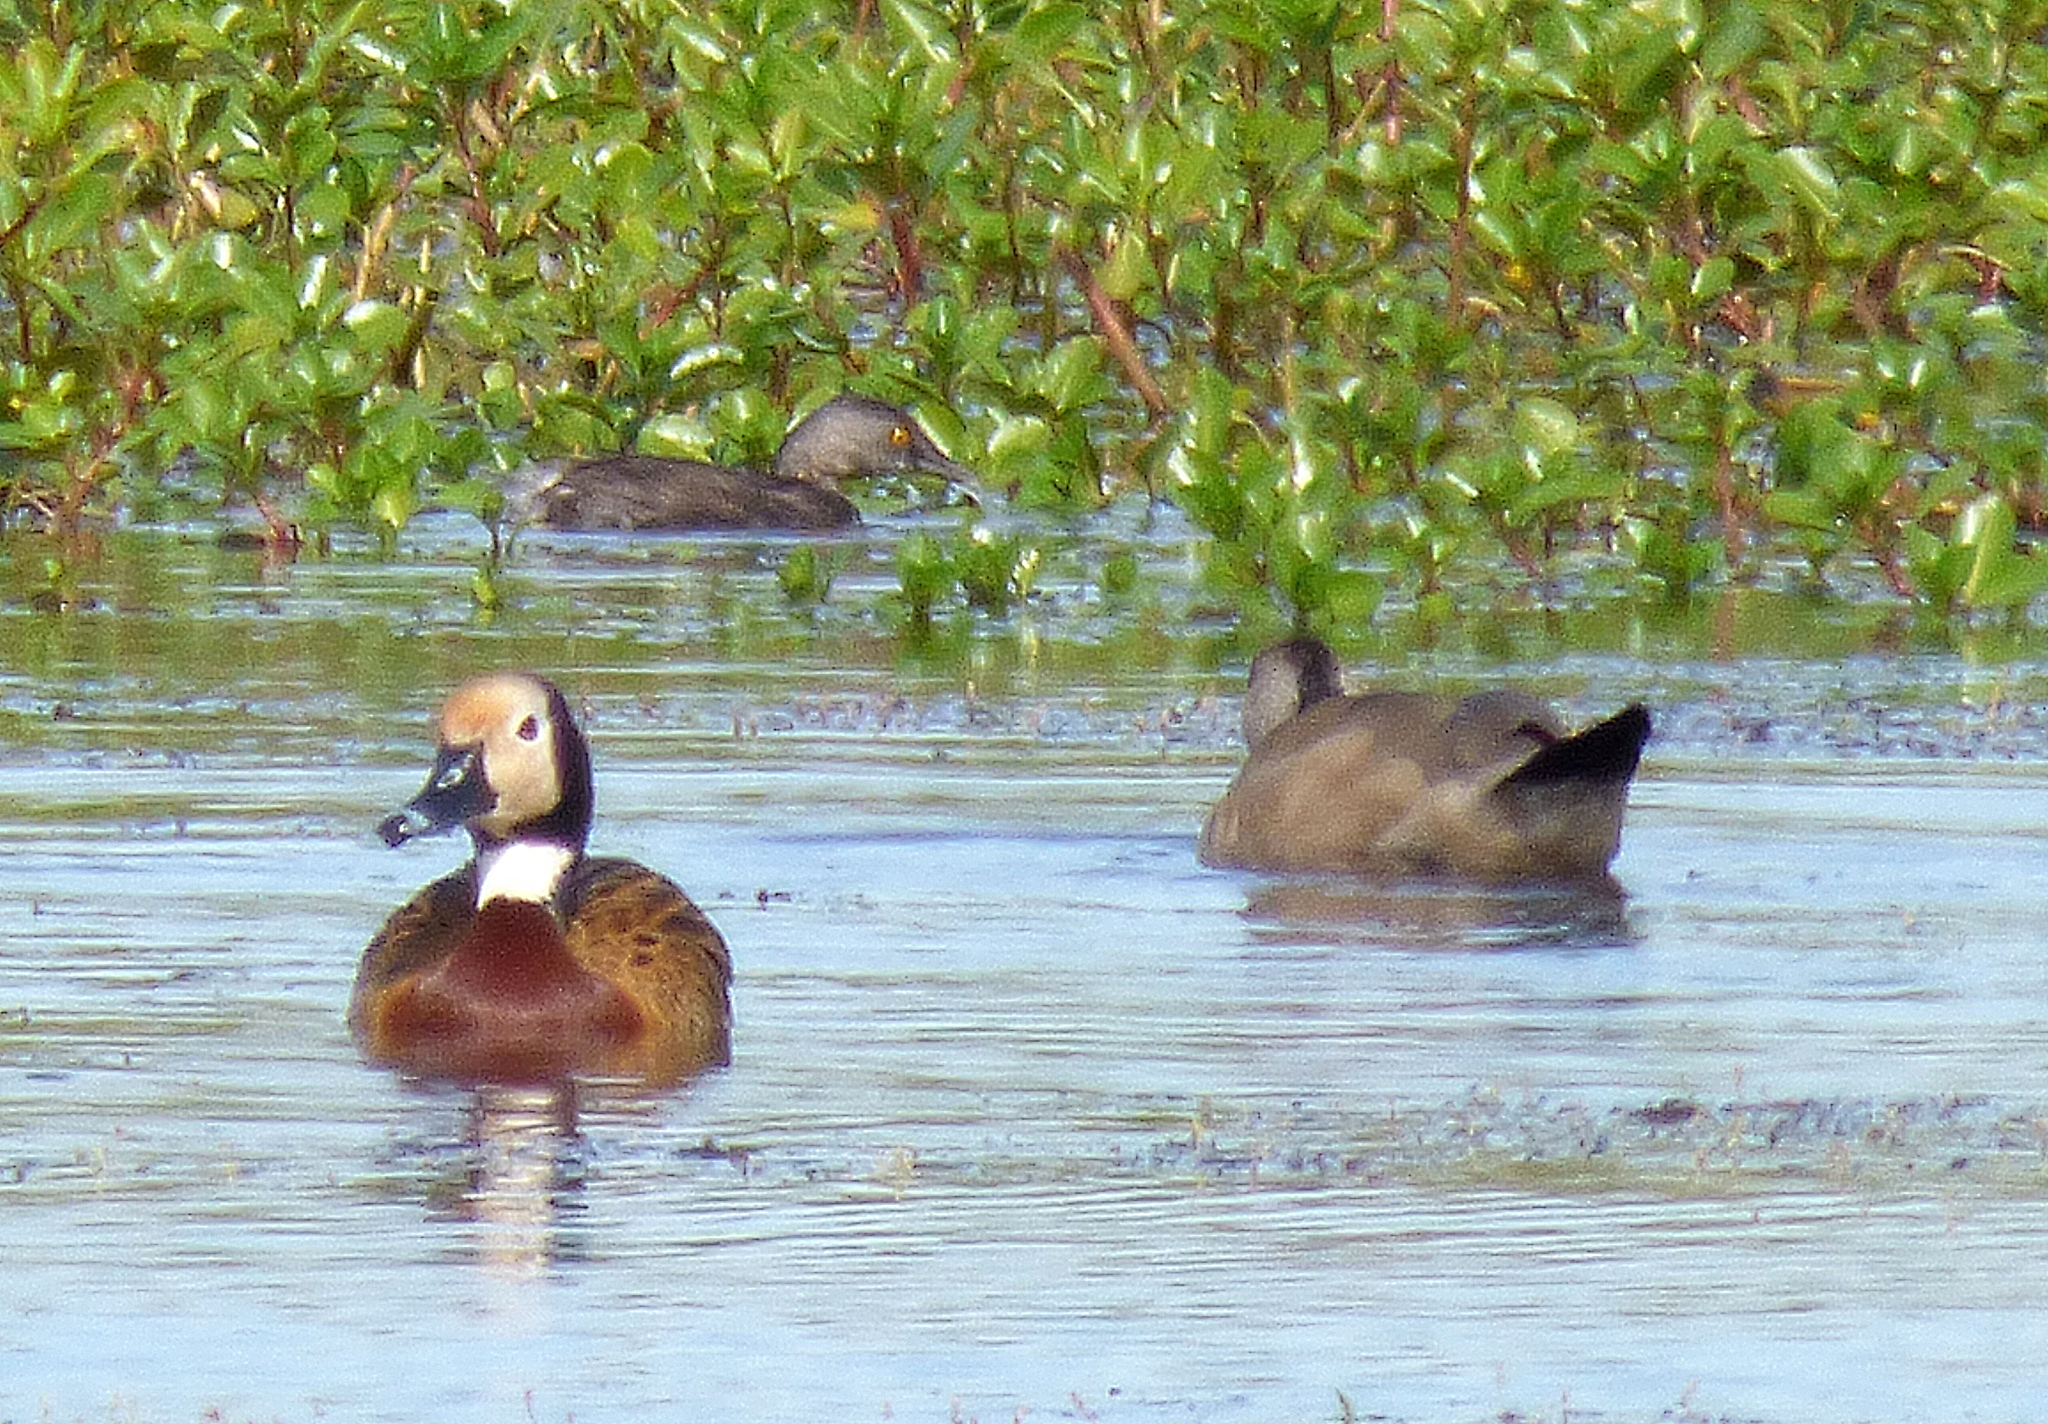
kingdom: Animalia
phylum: Chordata
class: Aves
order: Podicipediformes
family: Podicipedidae
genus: Tachybaptus
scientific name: Tachybaptus dominicus
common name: Least grebe
